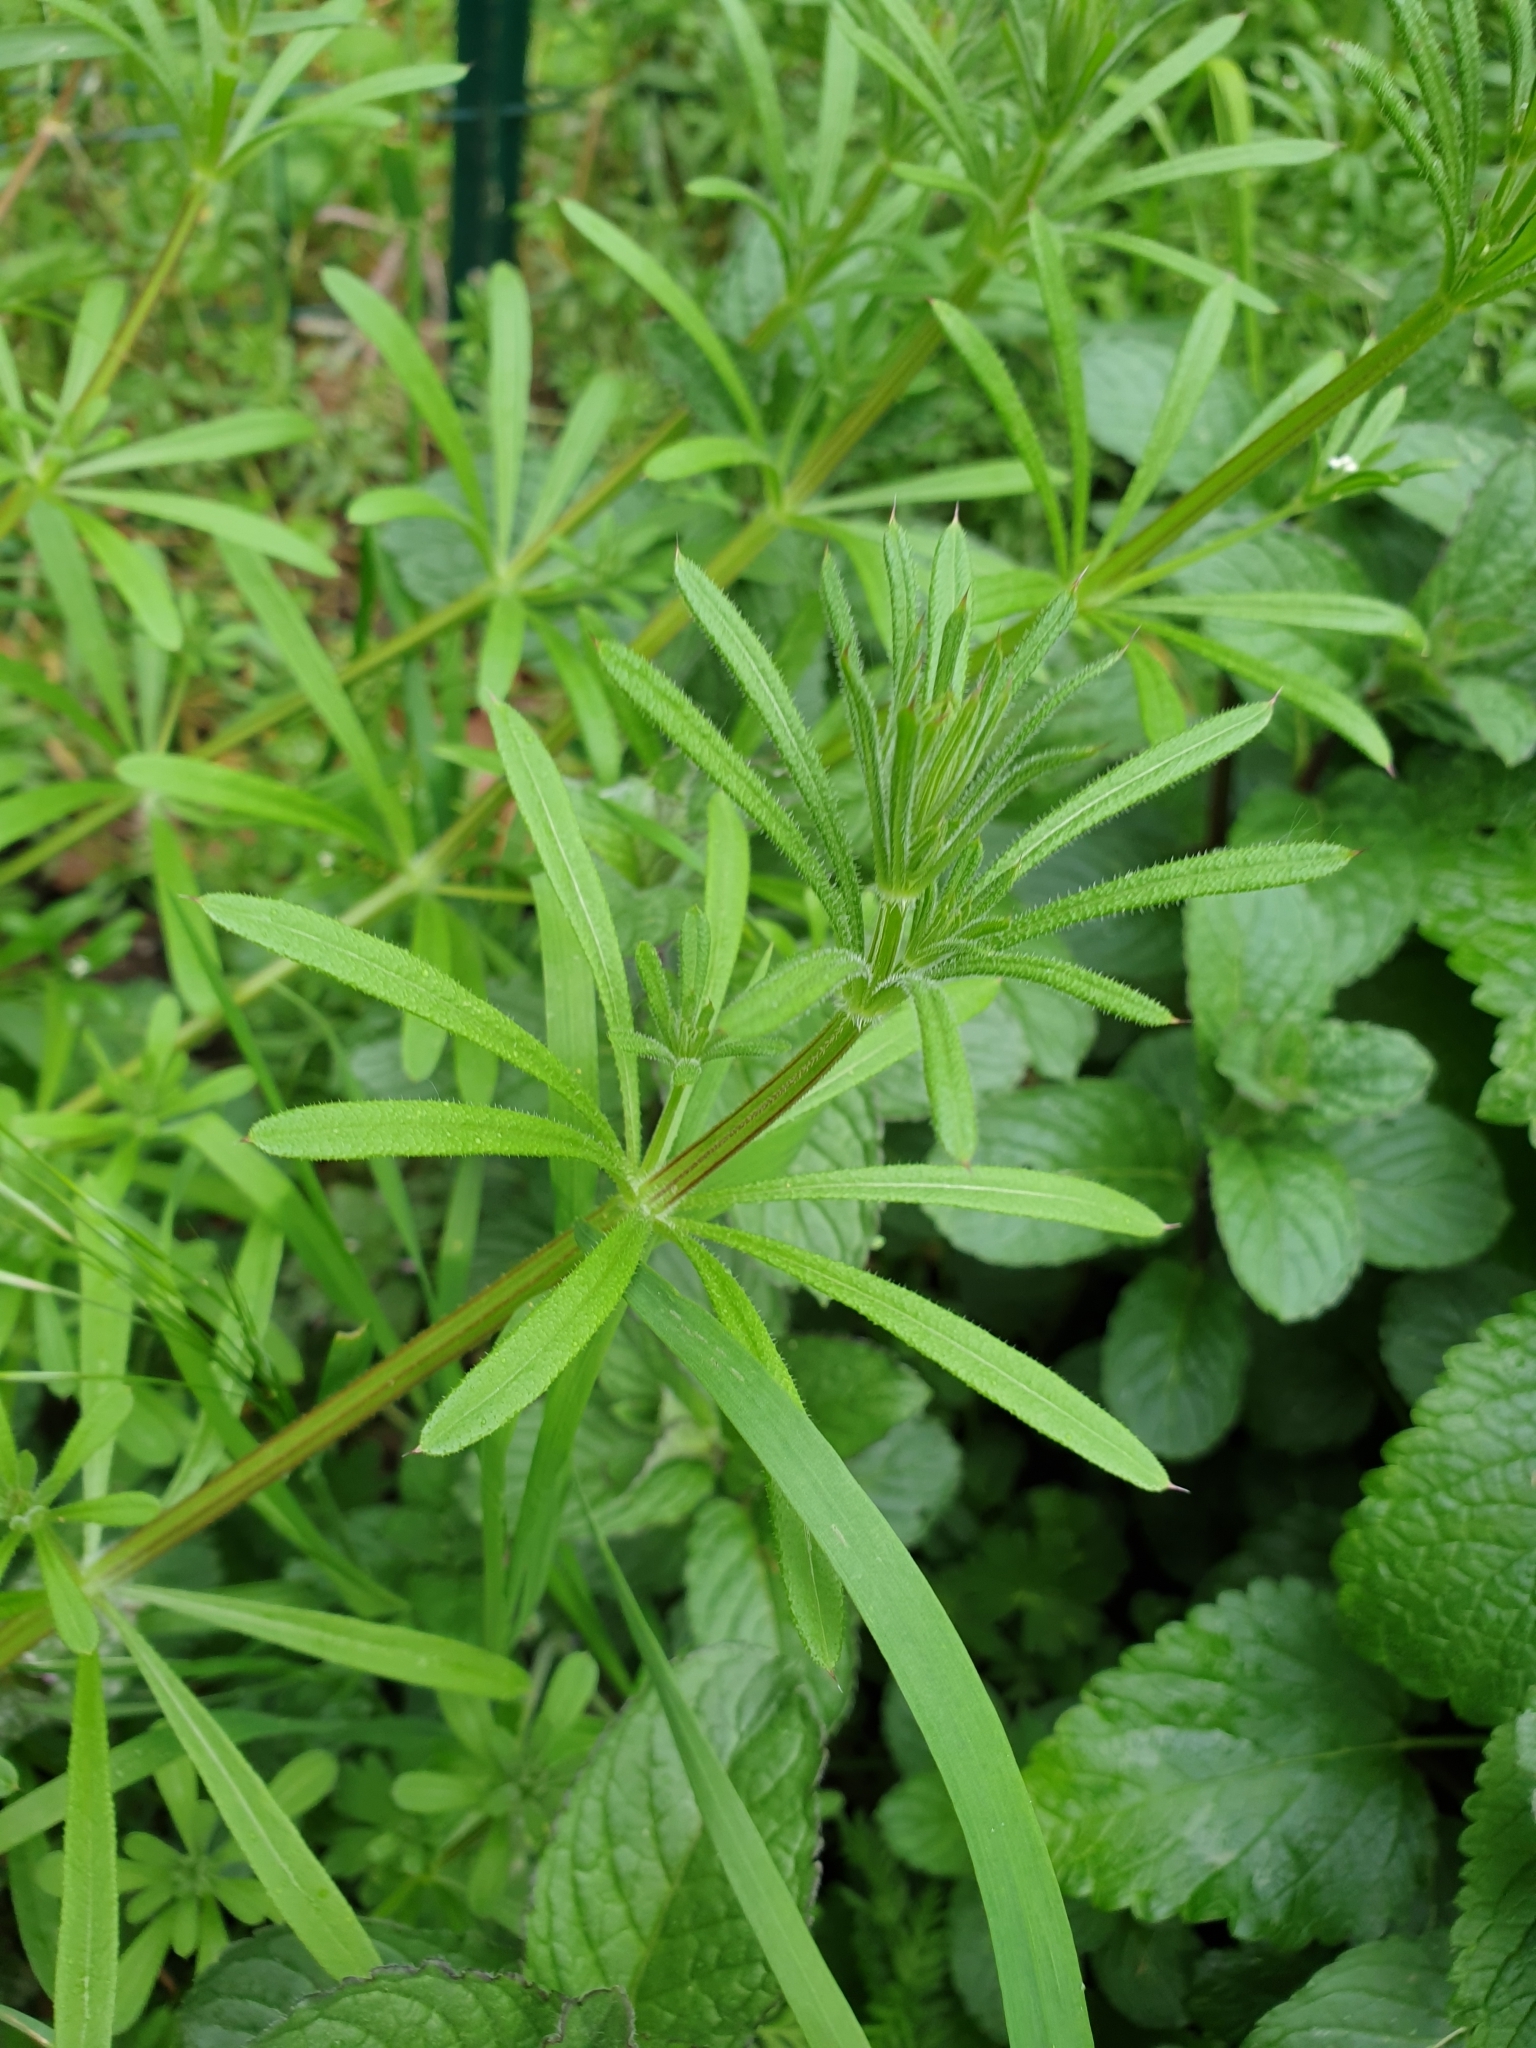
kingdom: Plantae
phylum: Tracheophyta
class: Magnoliopsida
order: Gentianales
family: Rubiaceae
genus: Galium
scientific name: Galium aparine
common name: Cleavers
